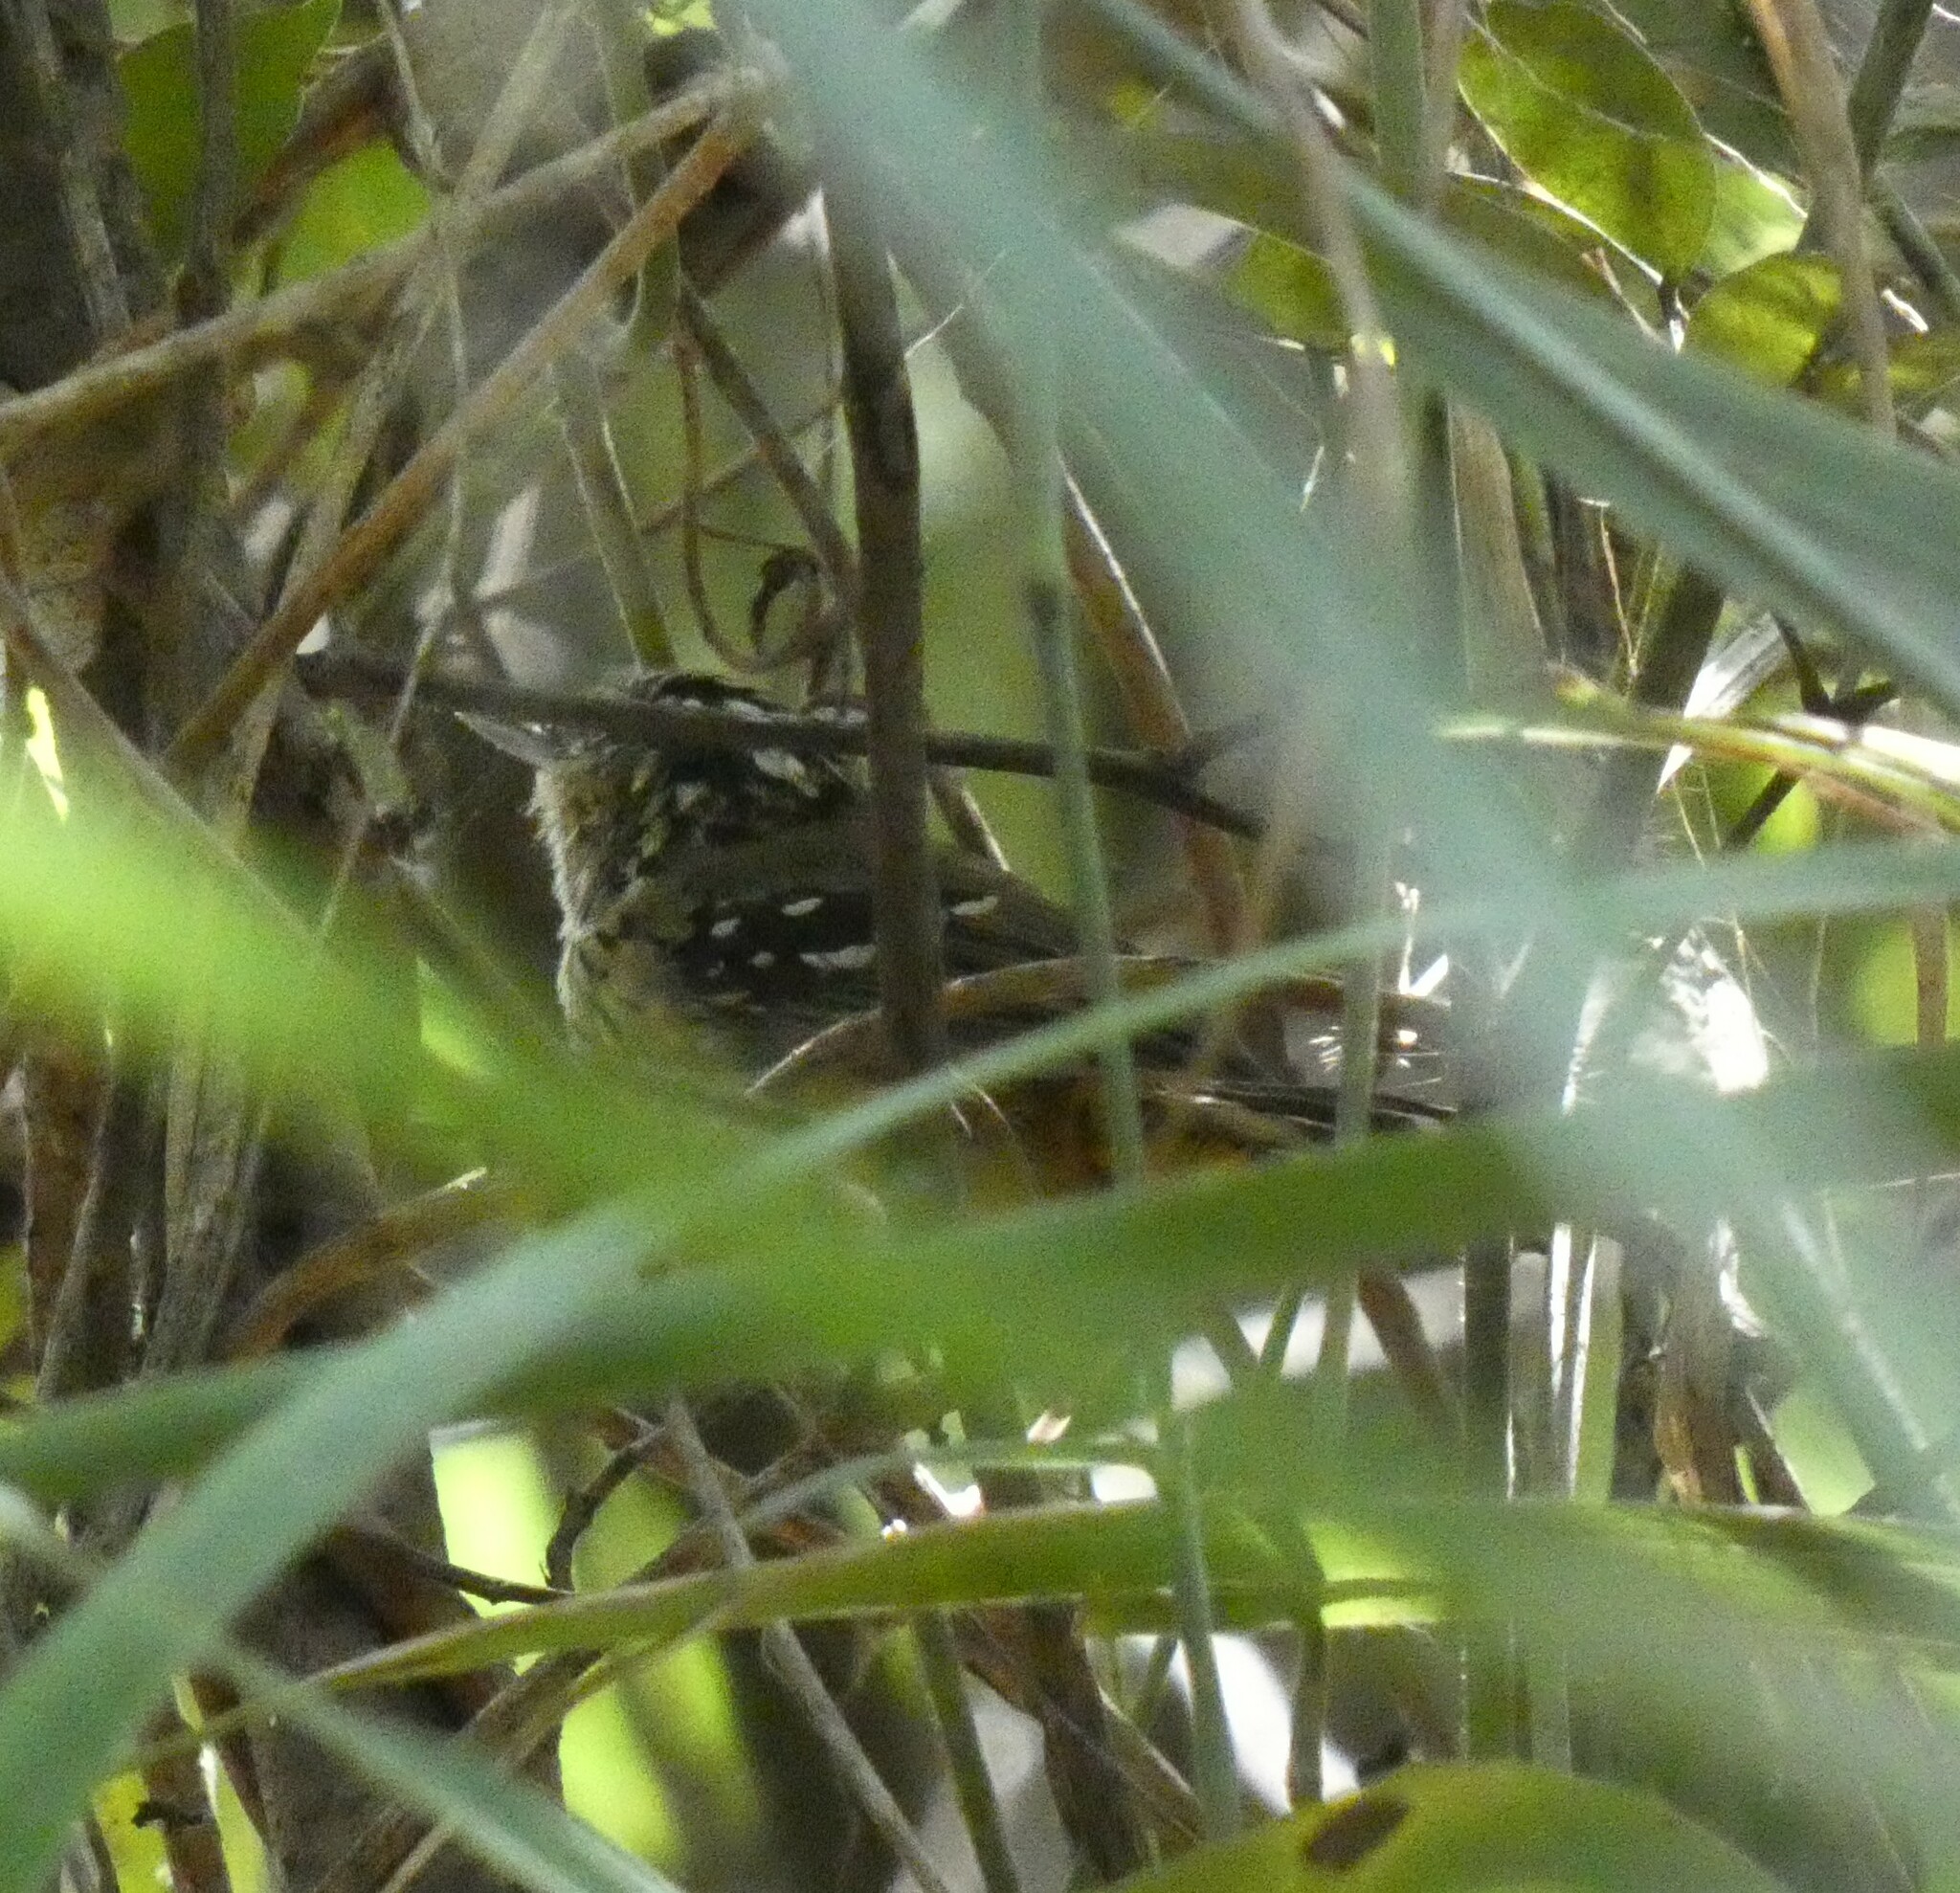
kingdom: Animalia
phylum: Chordata
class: Aves
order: Passeriformes
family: Thamnophilidae
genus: Drymophila
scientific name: Drymophila ochropyga
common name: Ochre-rumped antbird
